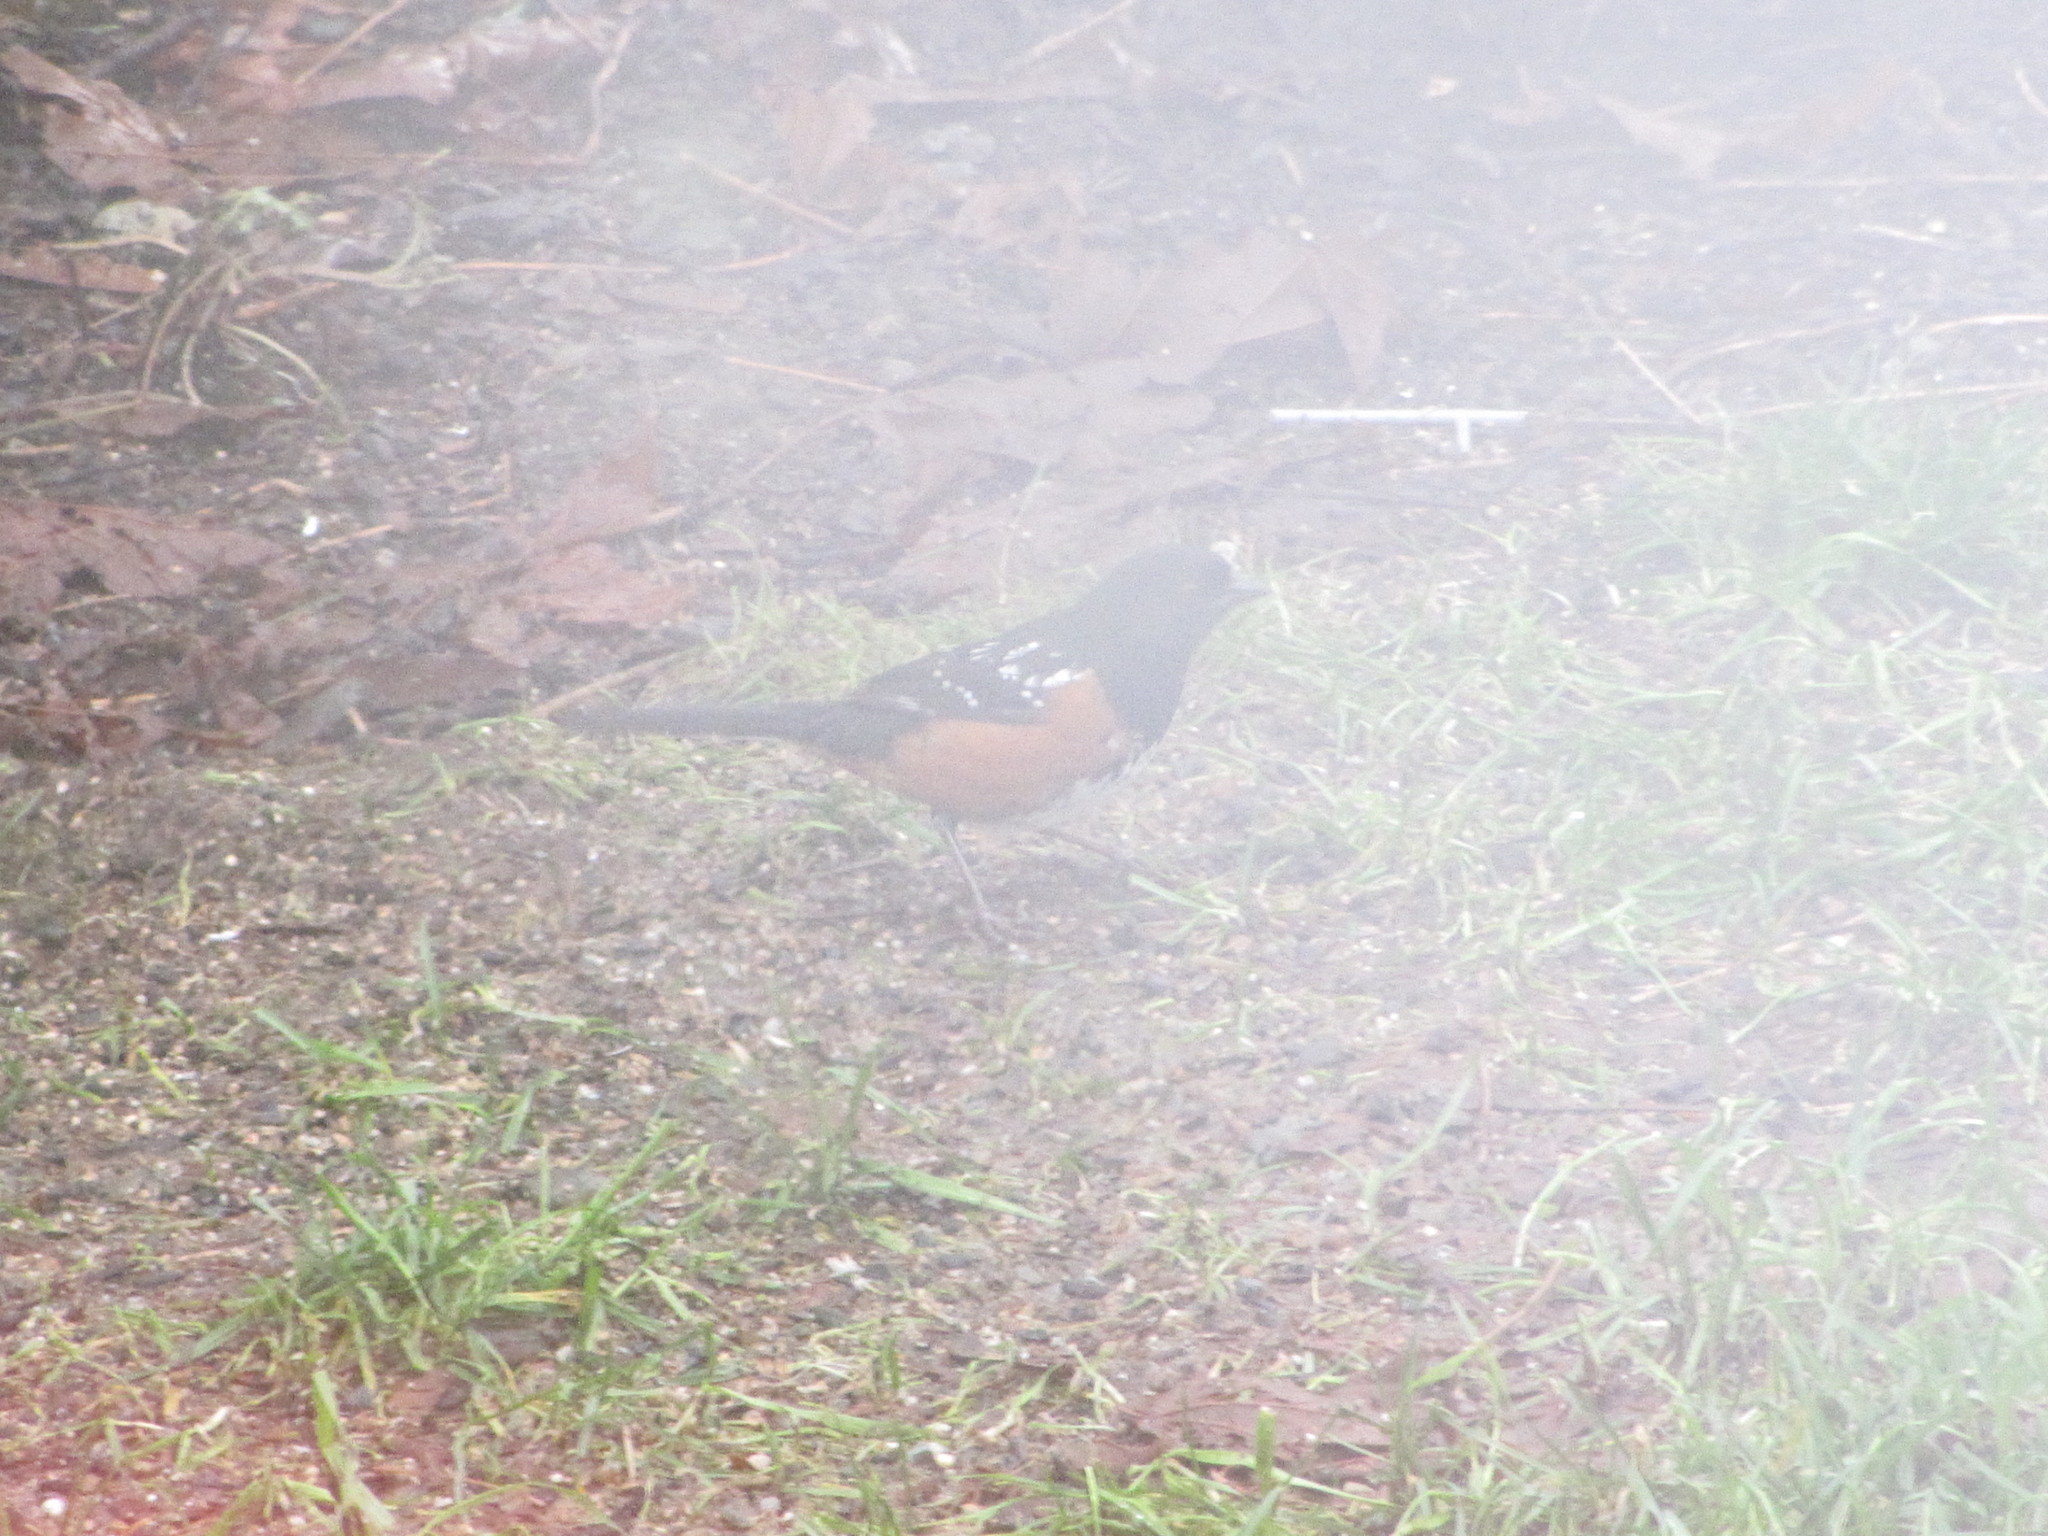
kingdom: Animalia
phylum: Chordata
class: Aves
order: Passeriformes
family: Passerellidae
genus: Pipilo
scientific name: Pipilo maculatus
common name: Spotted towhee
